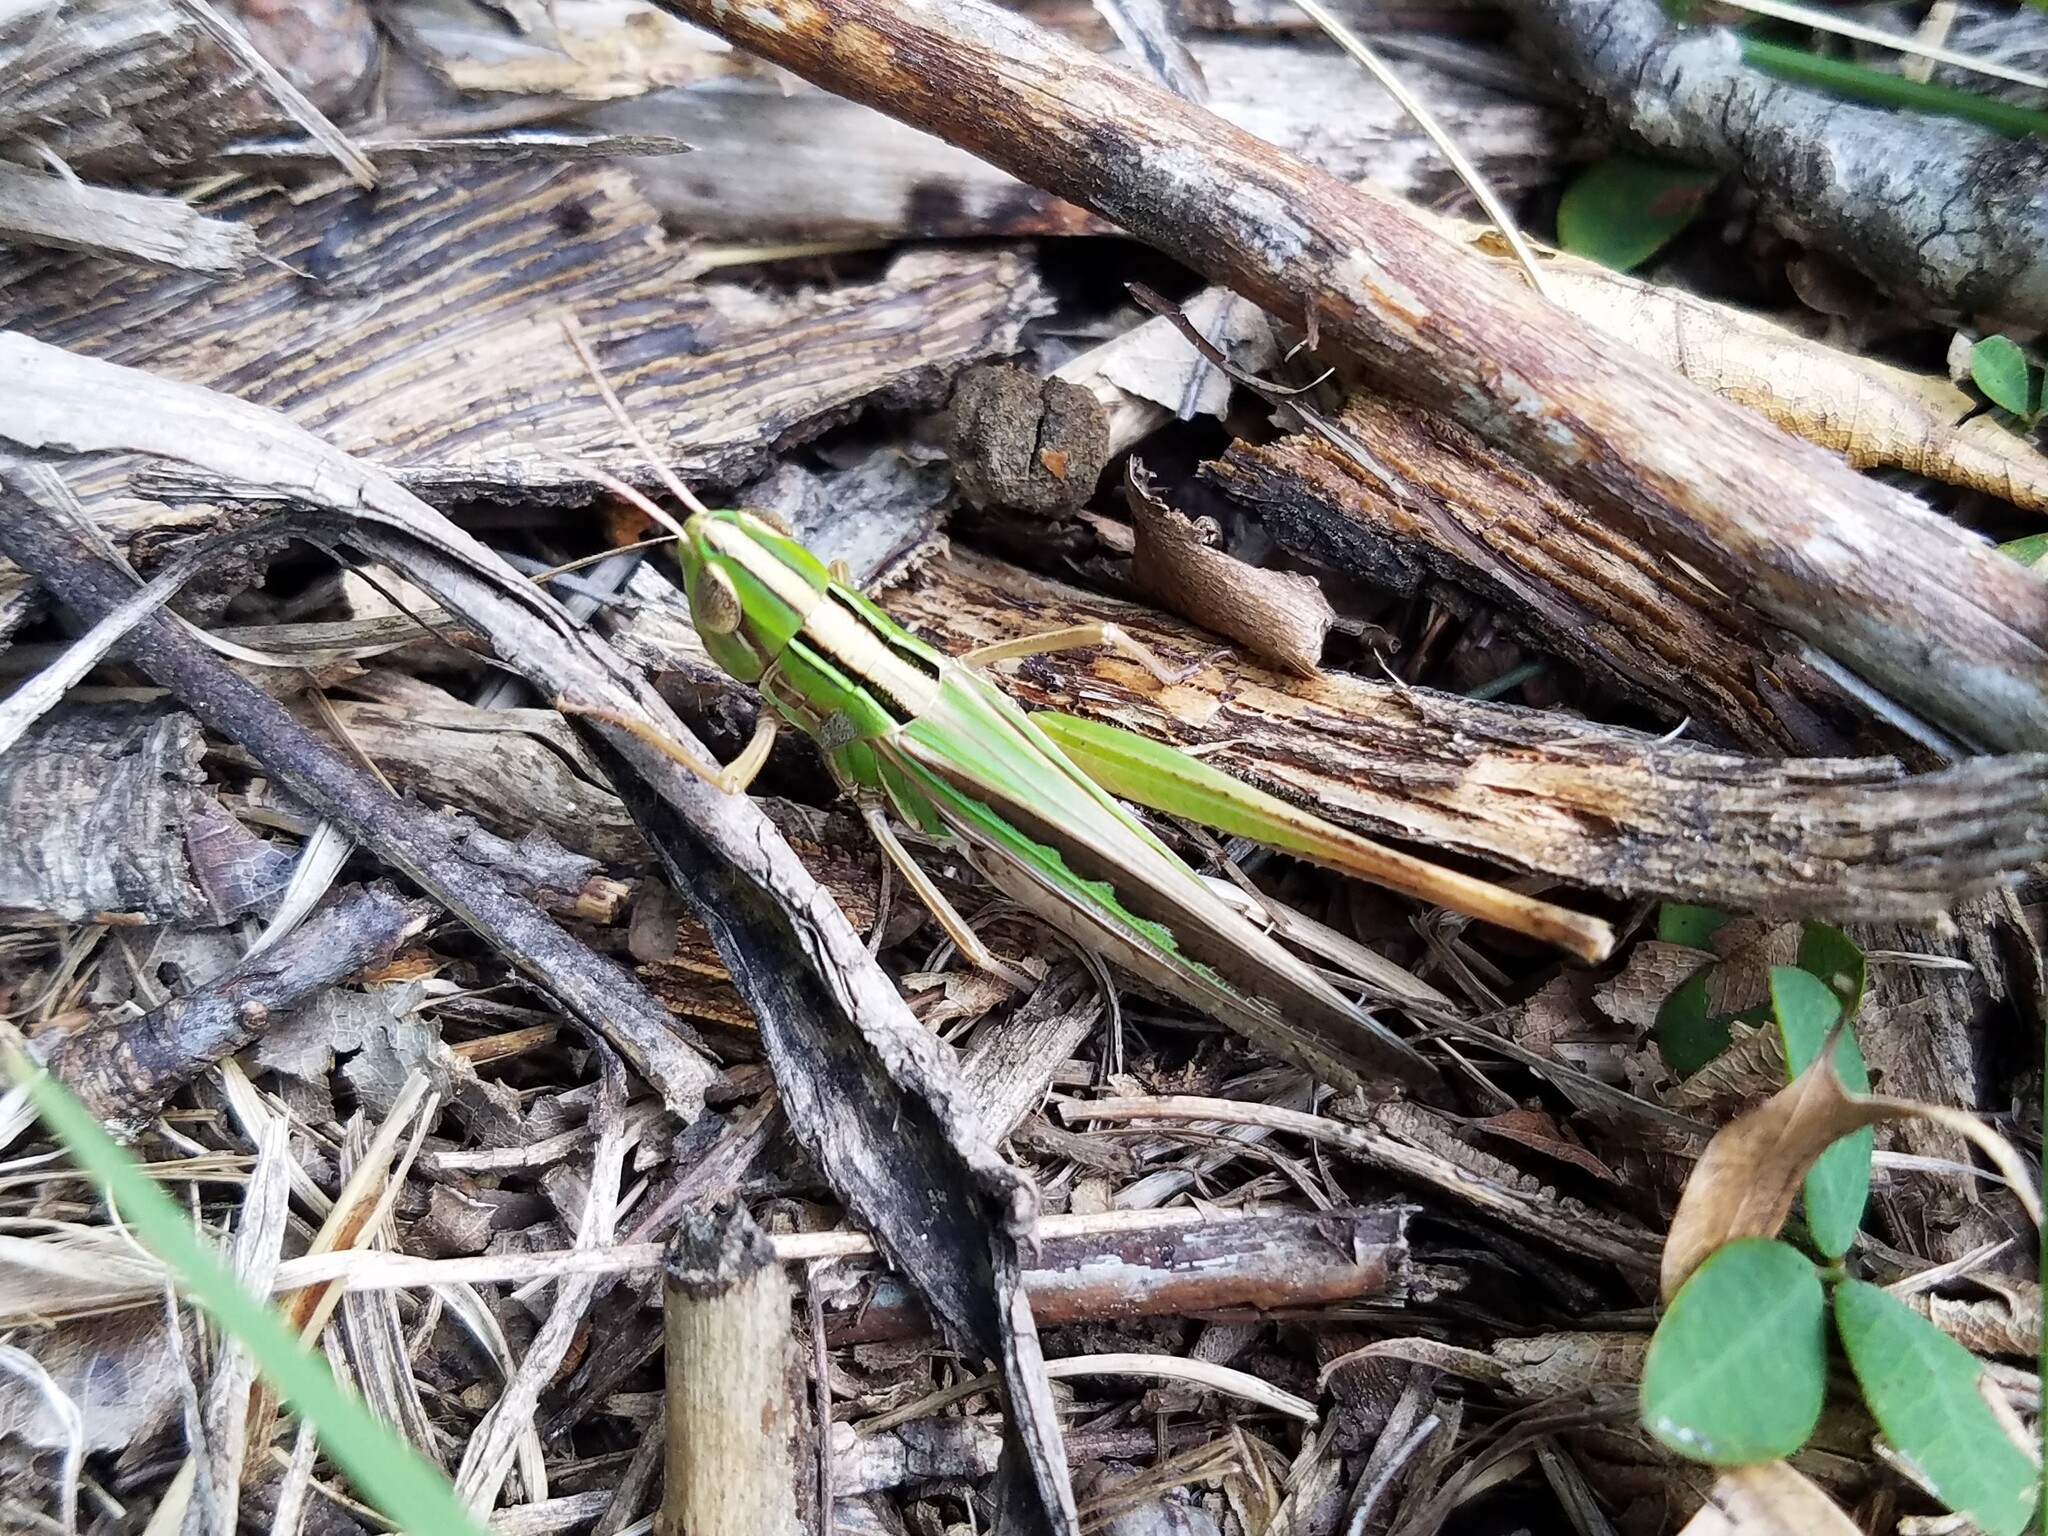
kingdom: Animalia
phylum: Arthropoda
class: Insecta
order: Orthoptera
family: Acrididae
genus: Syrbula
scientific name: Syrbula admirabilis
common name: Handsome grasshopper
